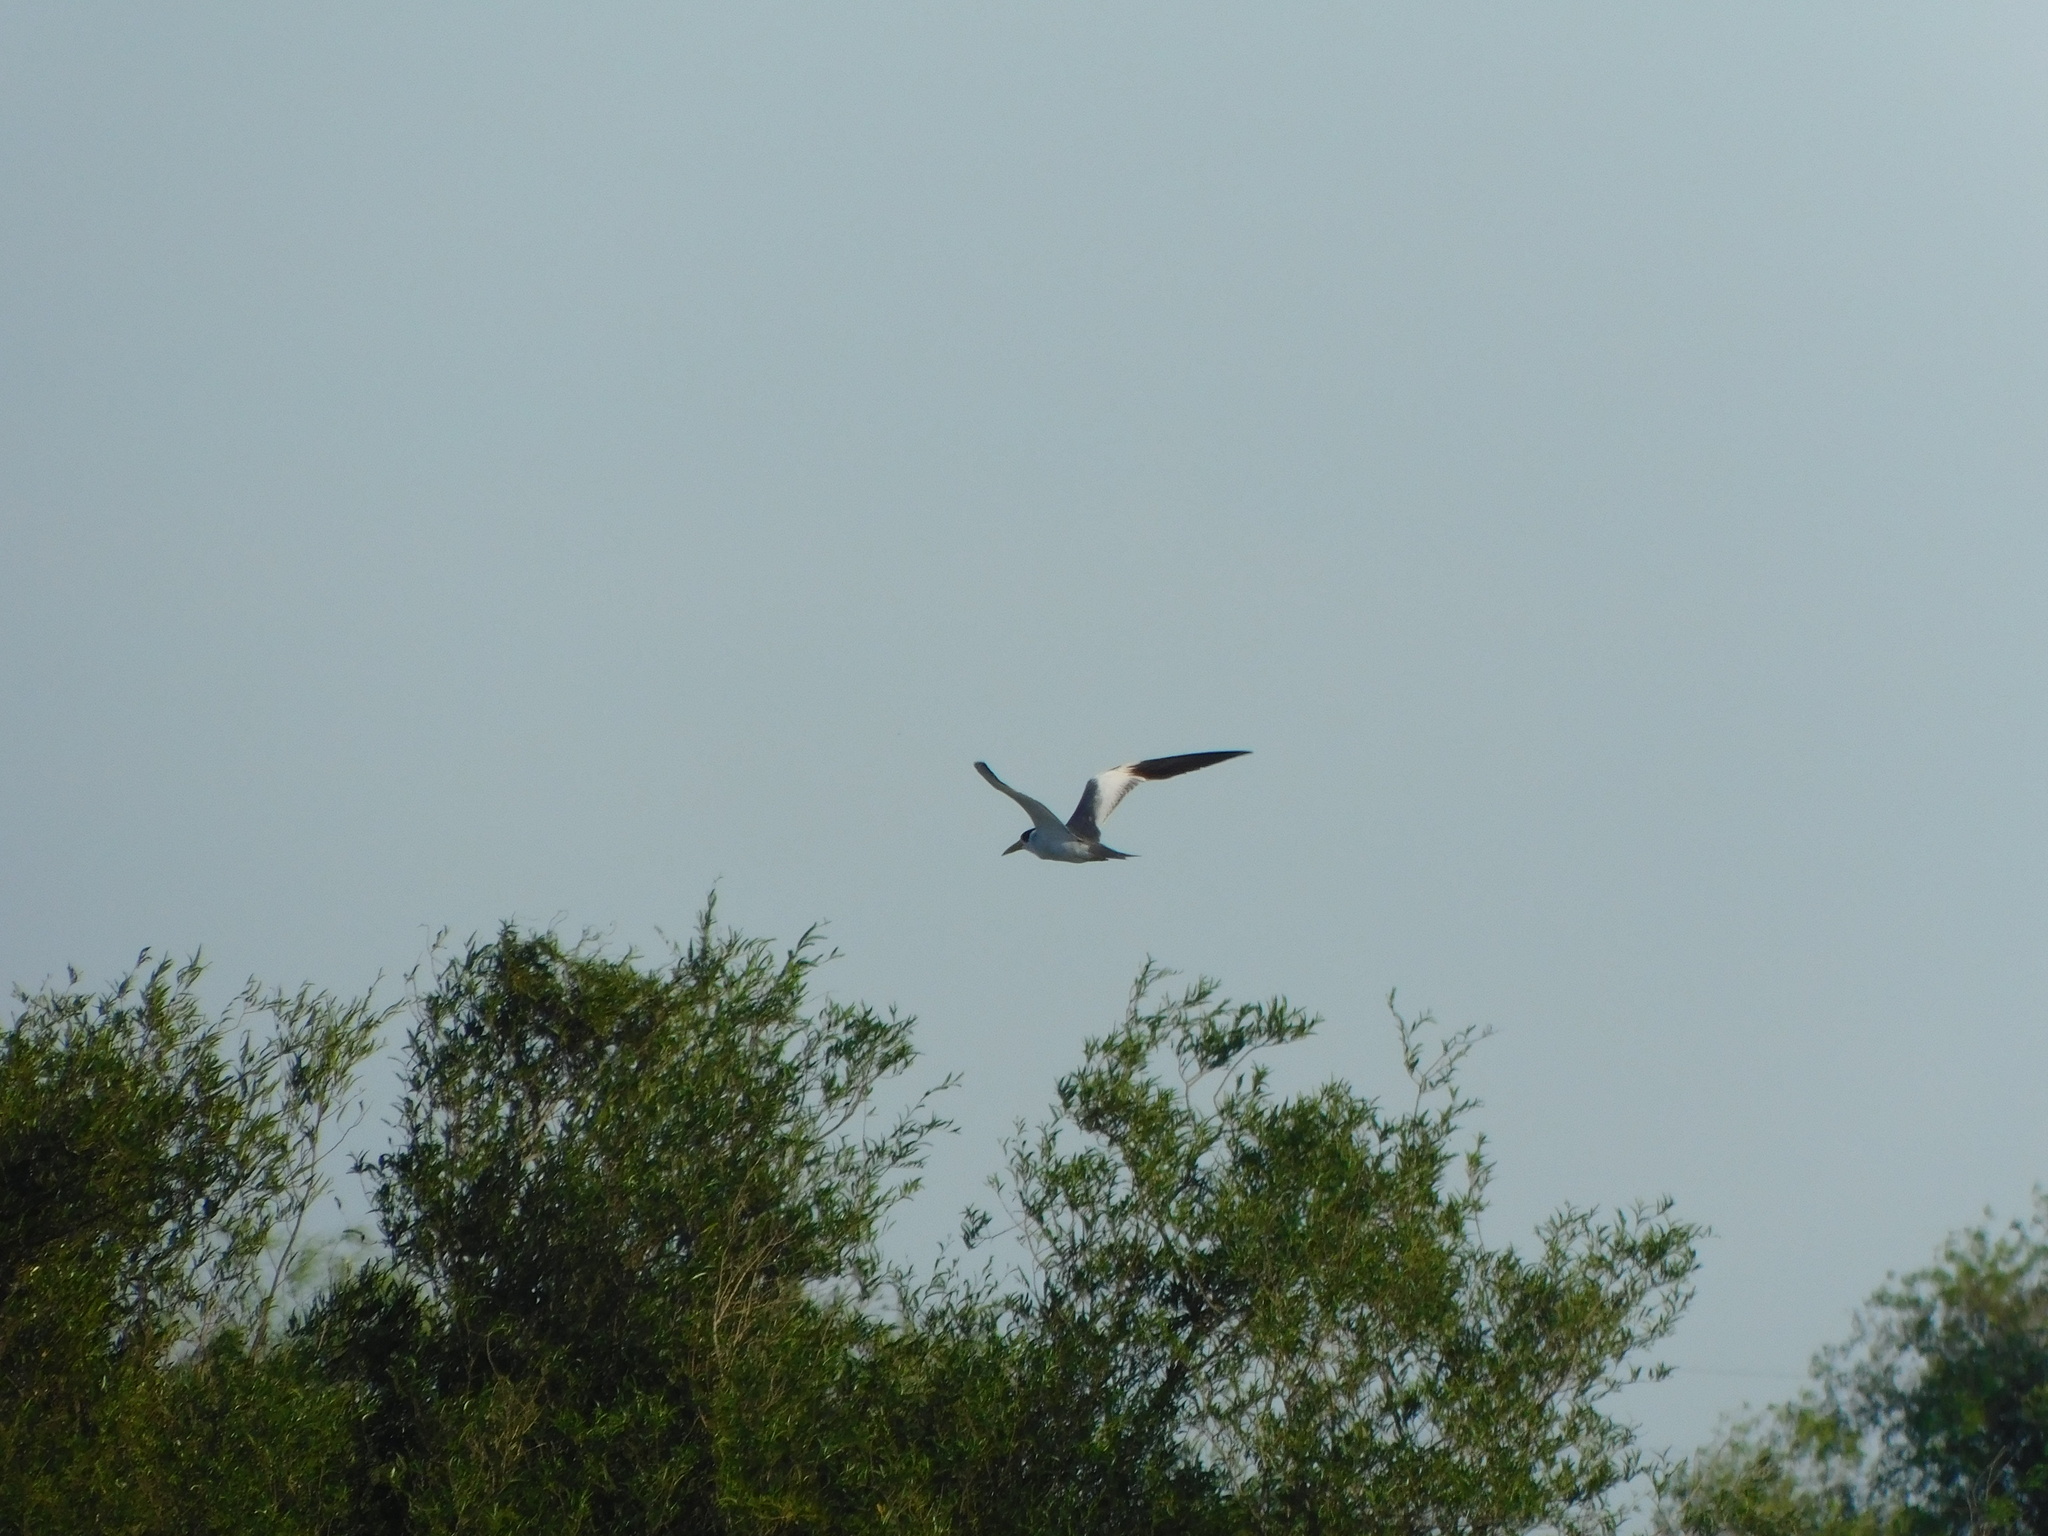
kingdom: Animalia
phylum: Chordata
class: Aves
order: Charadriiformes
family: Laridae
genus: Phaetusa
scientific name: Phaetusa simplex
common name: Large-billed tern
